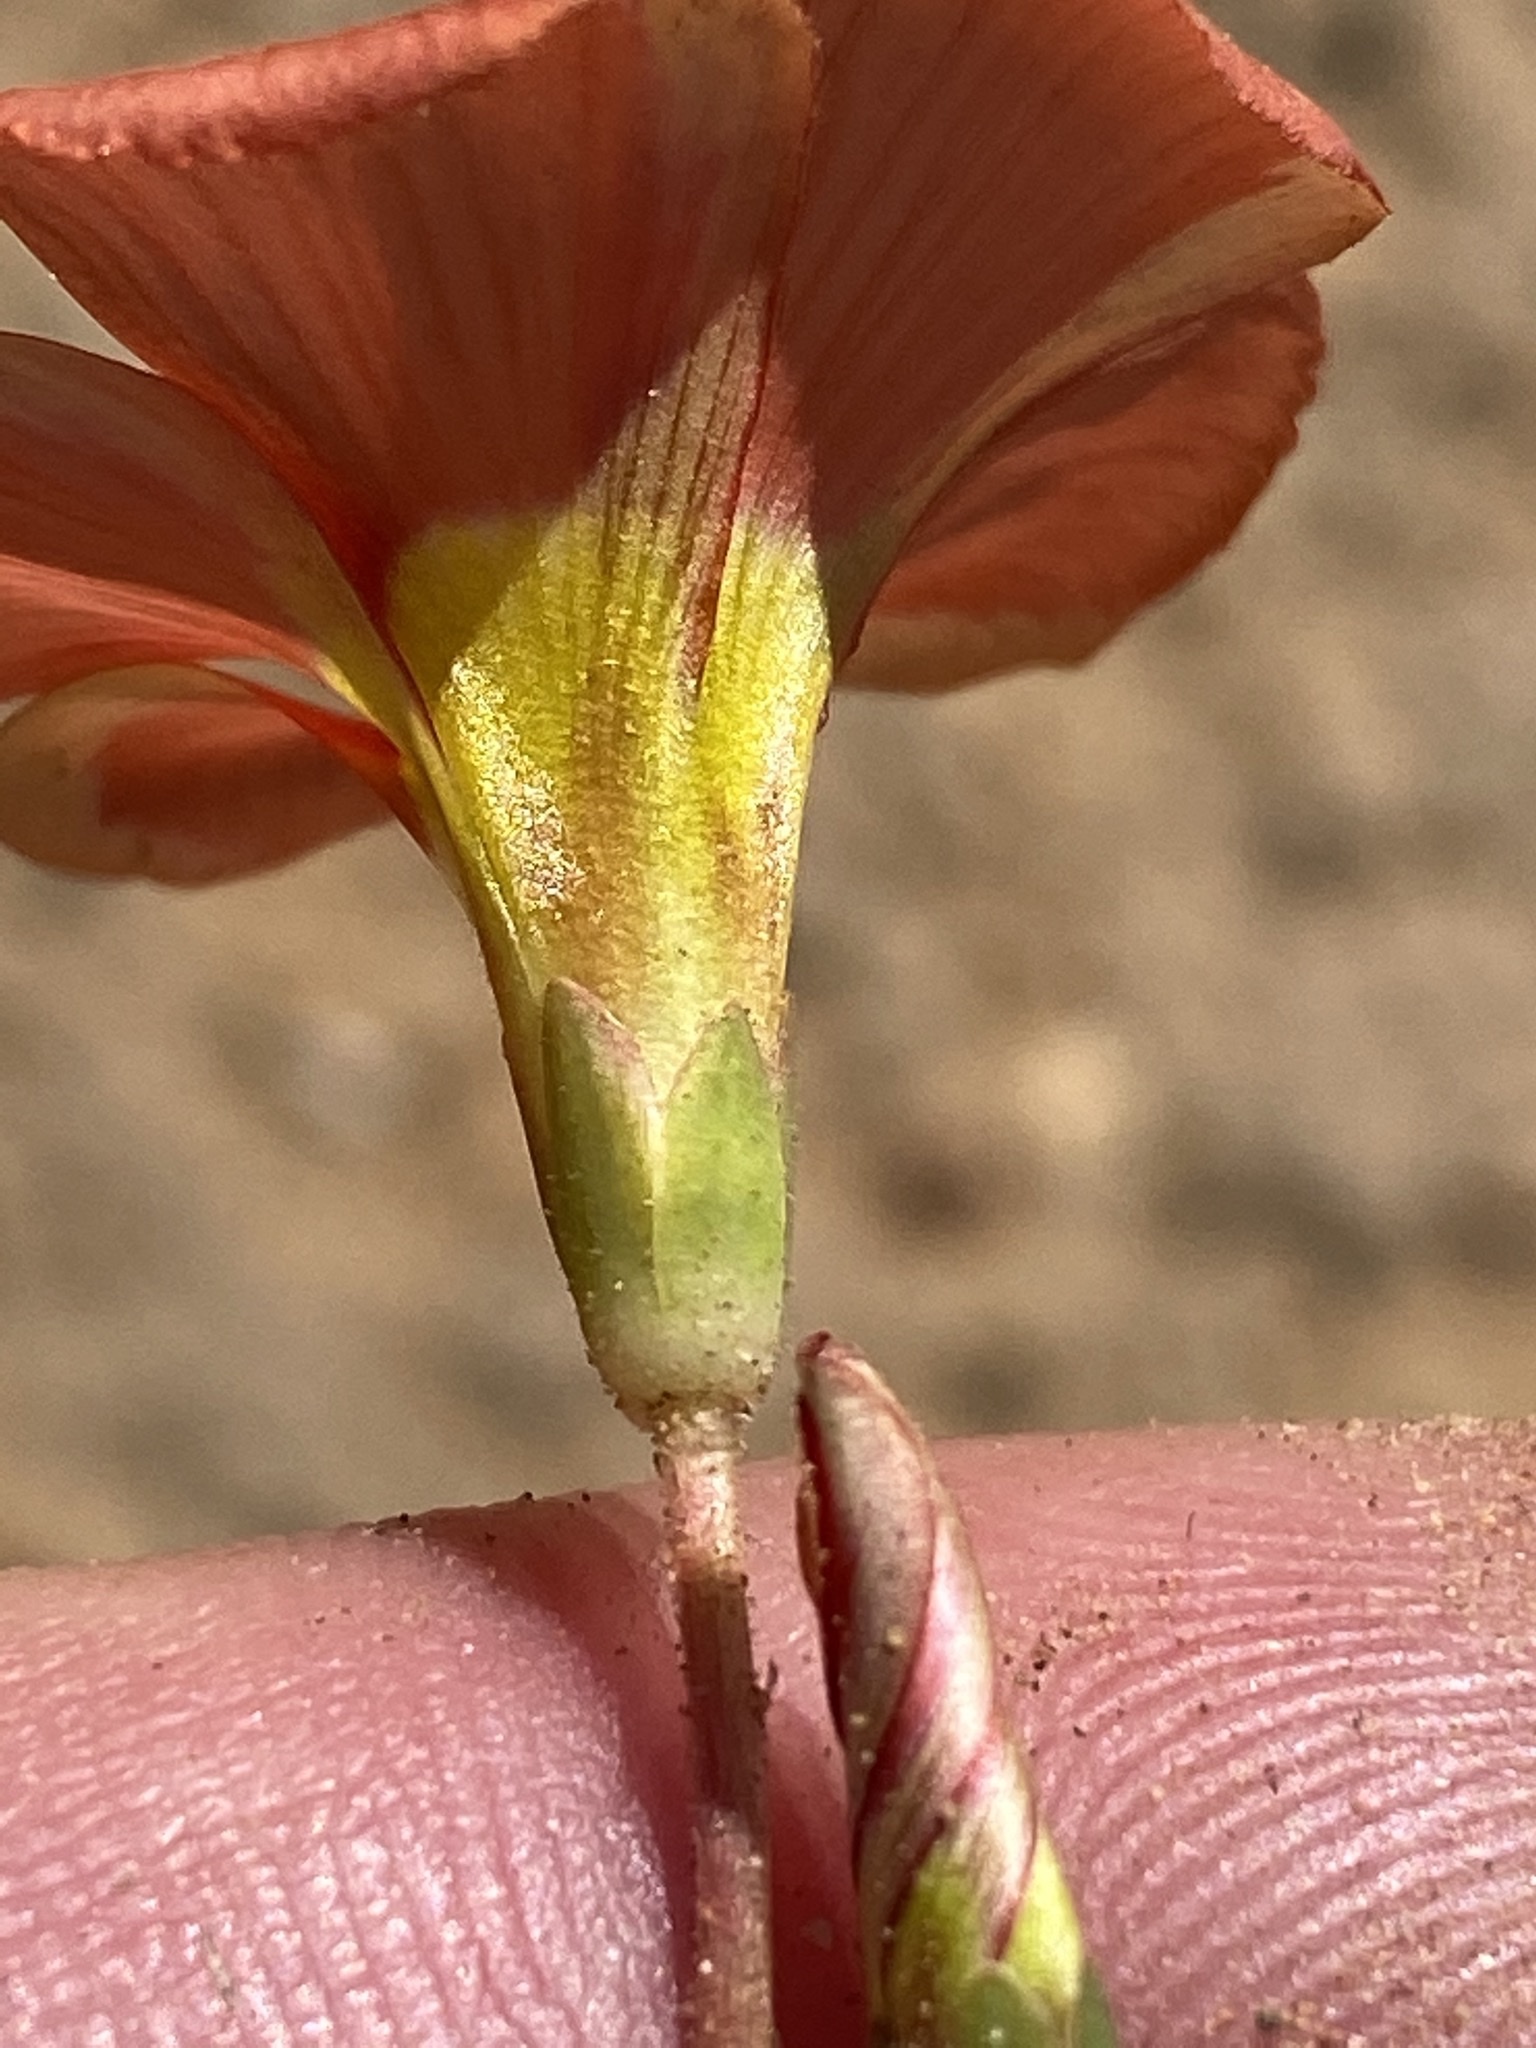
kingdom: Plantae
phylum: Tracheophyta
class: Magnoliopsida
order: Oxalidales
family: Oxalidaceae
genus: Oxalis
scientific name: Oxalis fergusoniae
